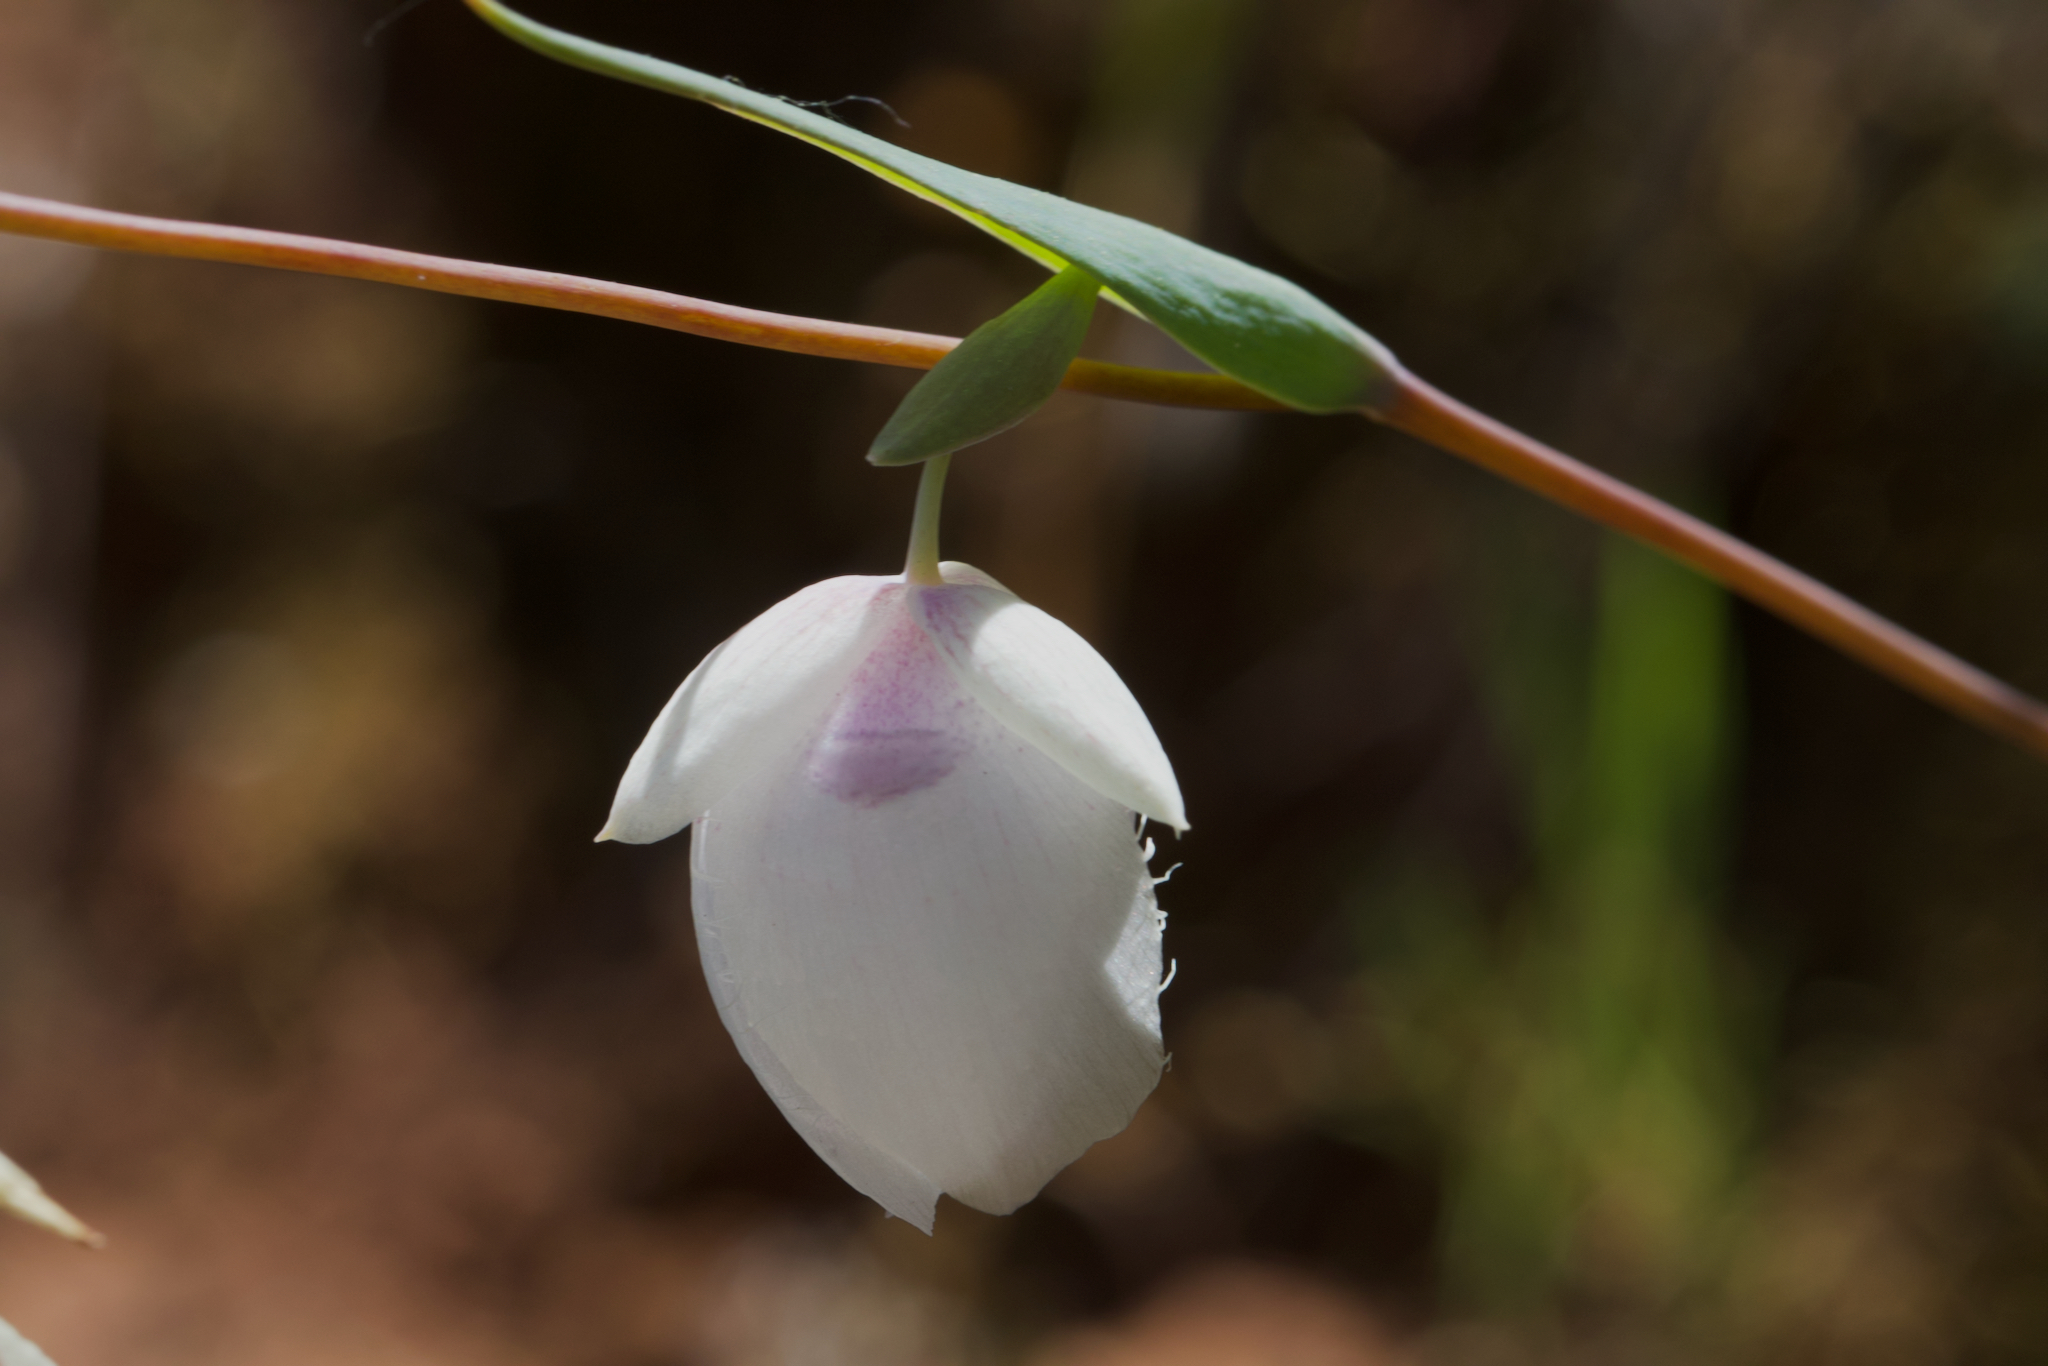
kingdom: Plantae
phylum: Tracheophyta
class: Liliopsida
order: Liliales
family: Liliaceae
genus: Calochortus
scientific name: Calochortus albus
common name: Fairy-lantern
